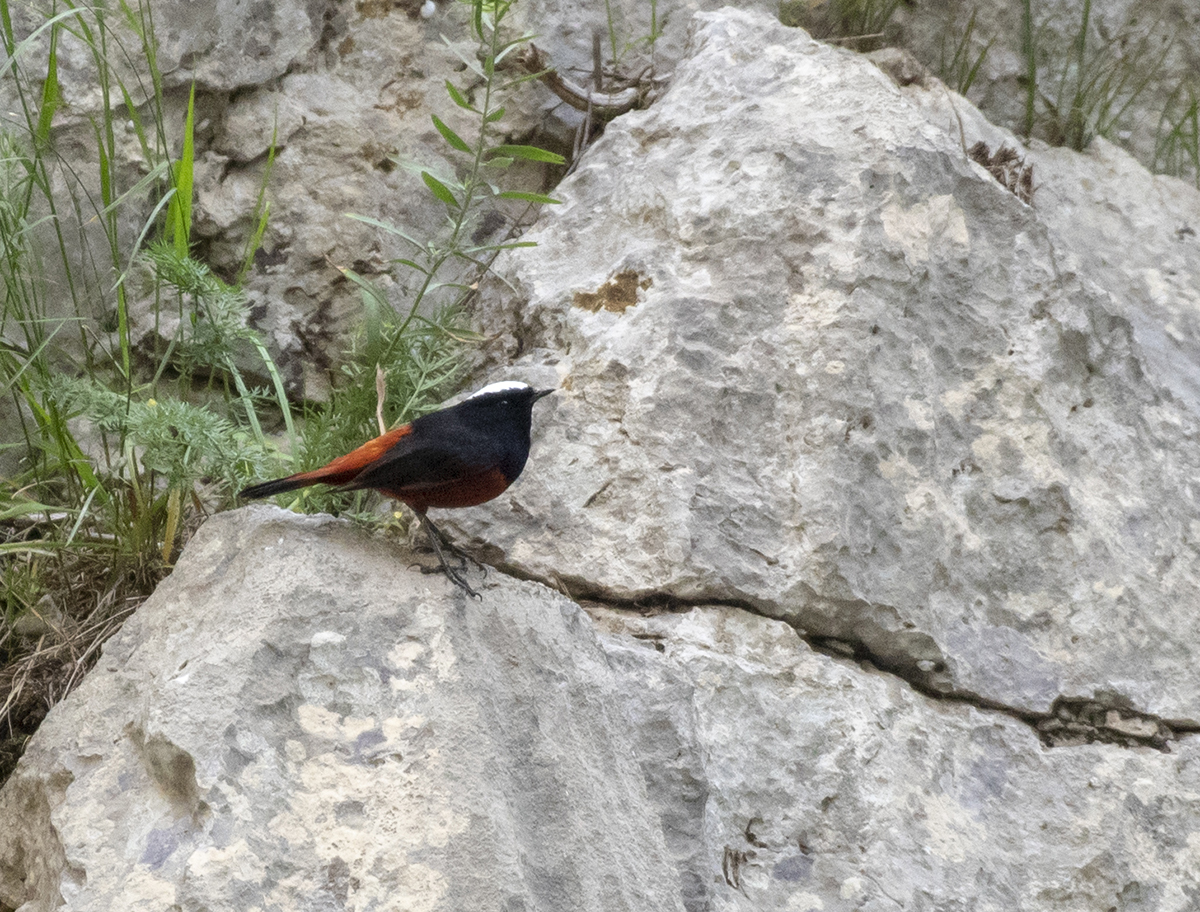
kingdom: Animalia
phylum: Chordata
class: Aves
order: Passeriformes
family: Muscicapidae
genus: Chaimarrornis
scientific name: Chaimarrornis leucocephalus
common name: White-capped redstart
